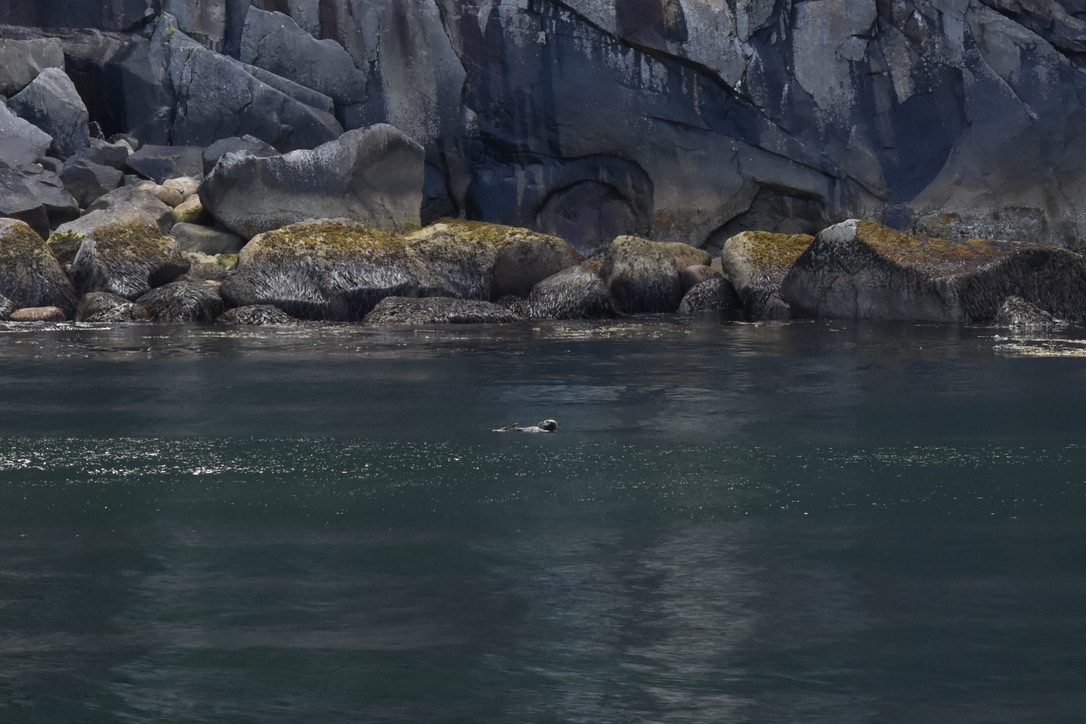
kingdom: Animalia
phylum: Chordata
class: Mammalia
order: Carnivora
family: Mustelidae
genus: Enhydra
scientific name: Enhydra lutris
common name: Sea otter
